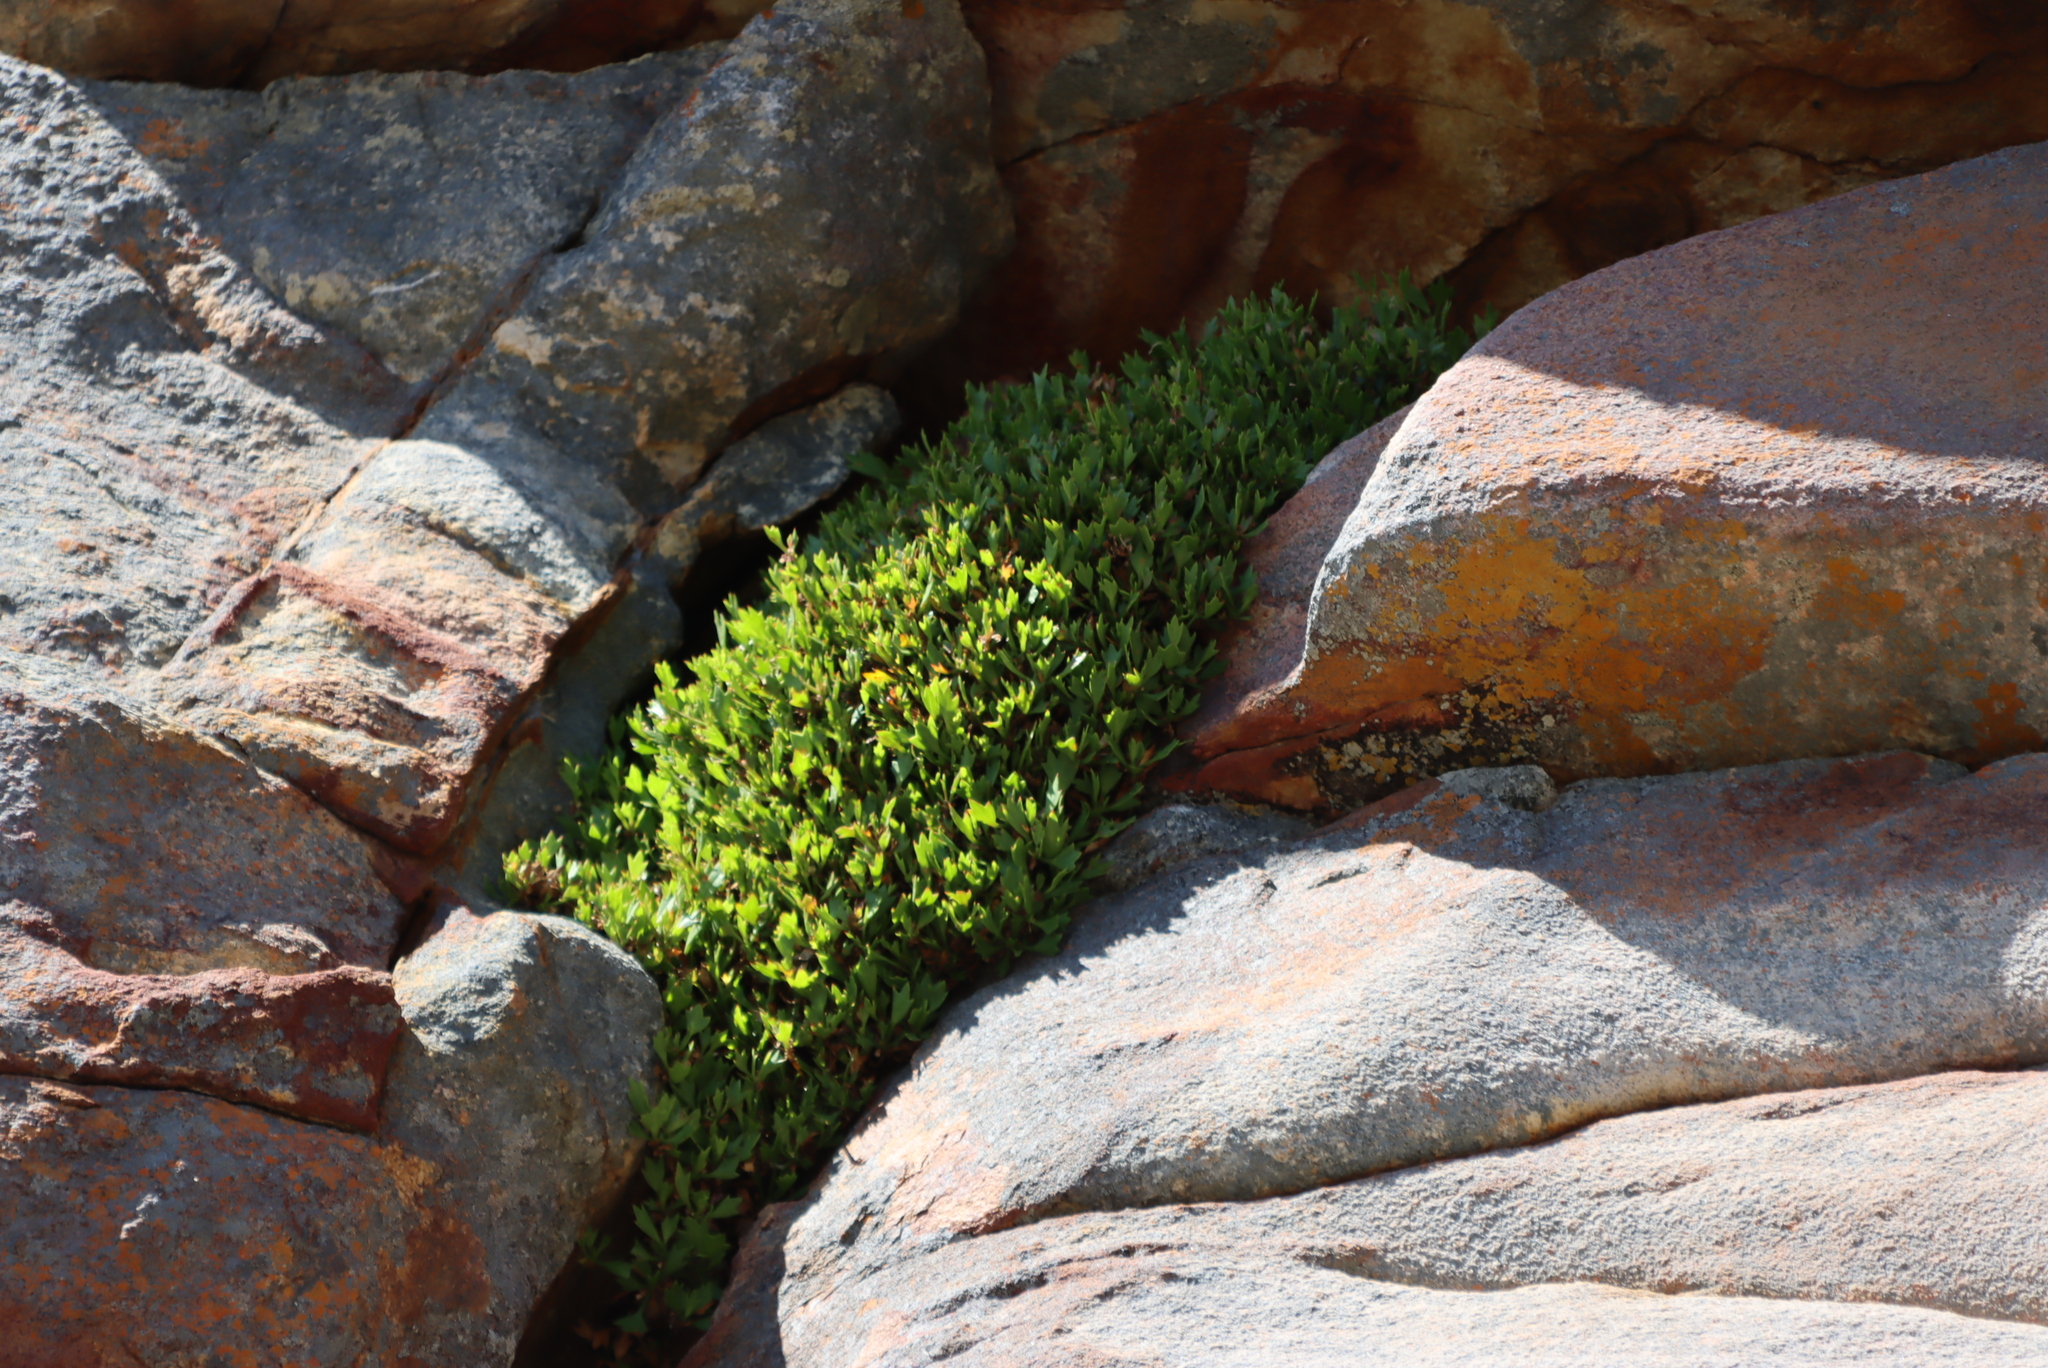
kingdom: Plantae
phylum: Tracheophyta
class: Magnoliopsida
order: Apiales
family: Apiaceae
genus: Centella
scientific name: Centella triloba
